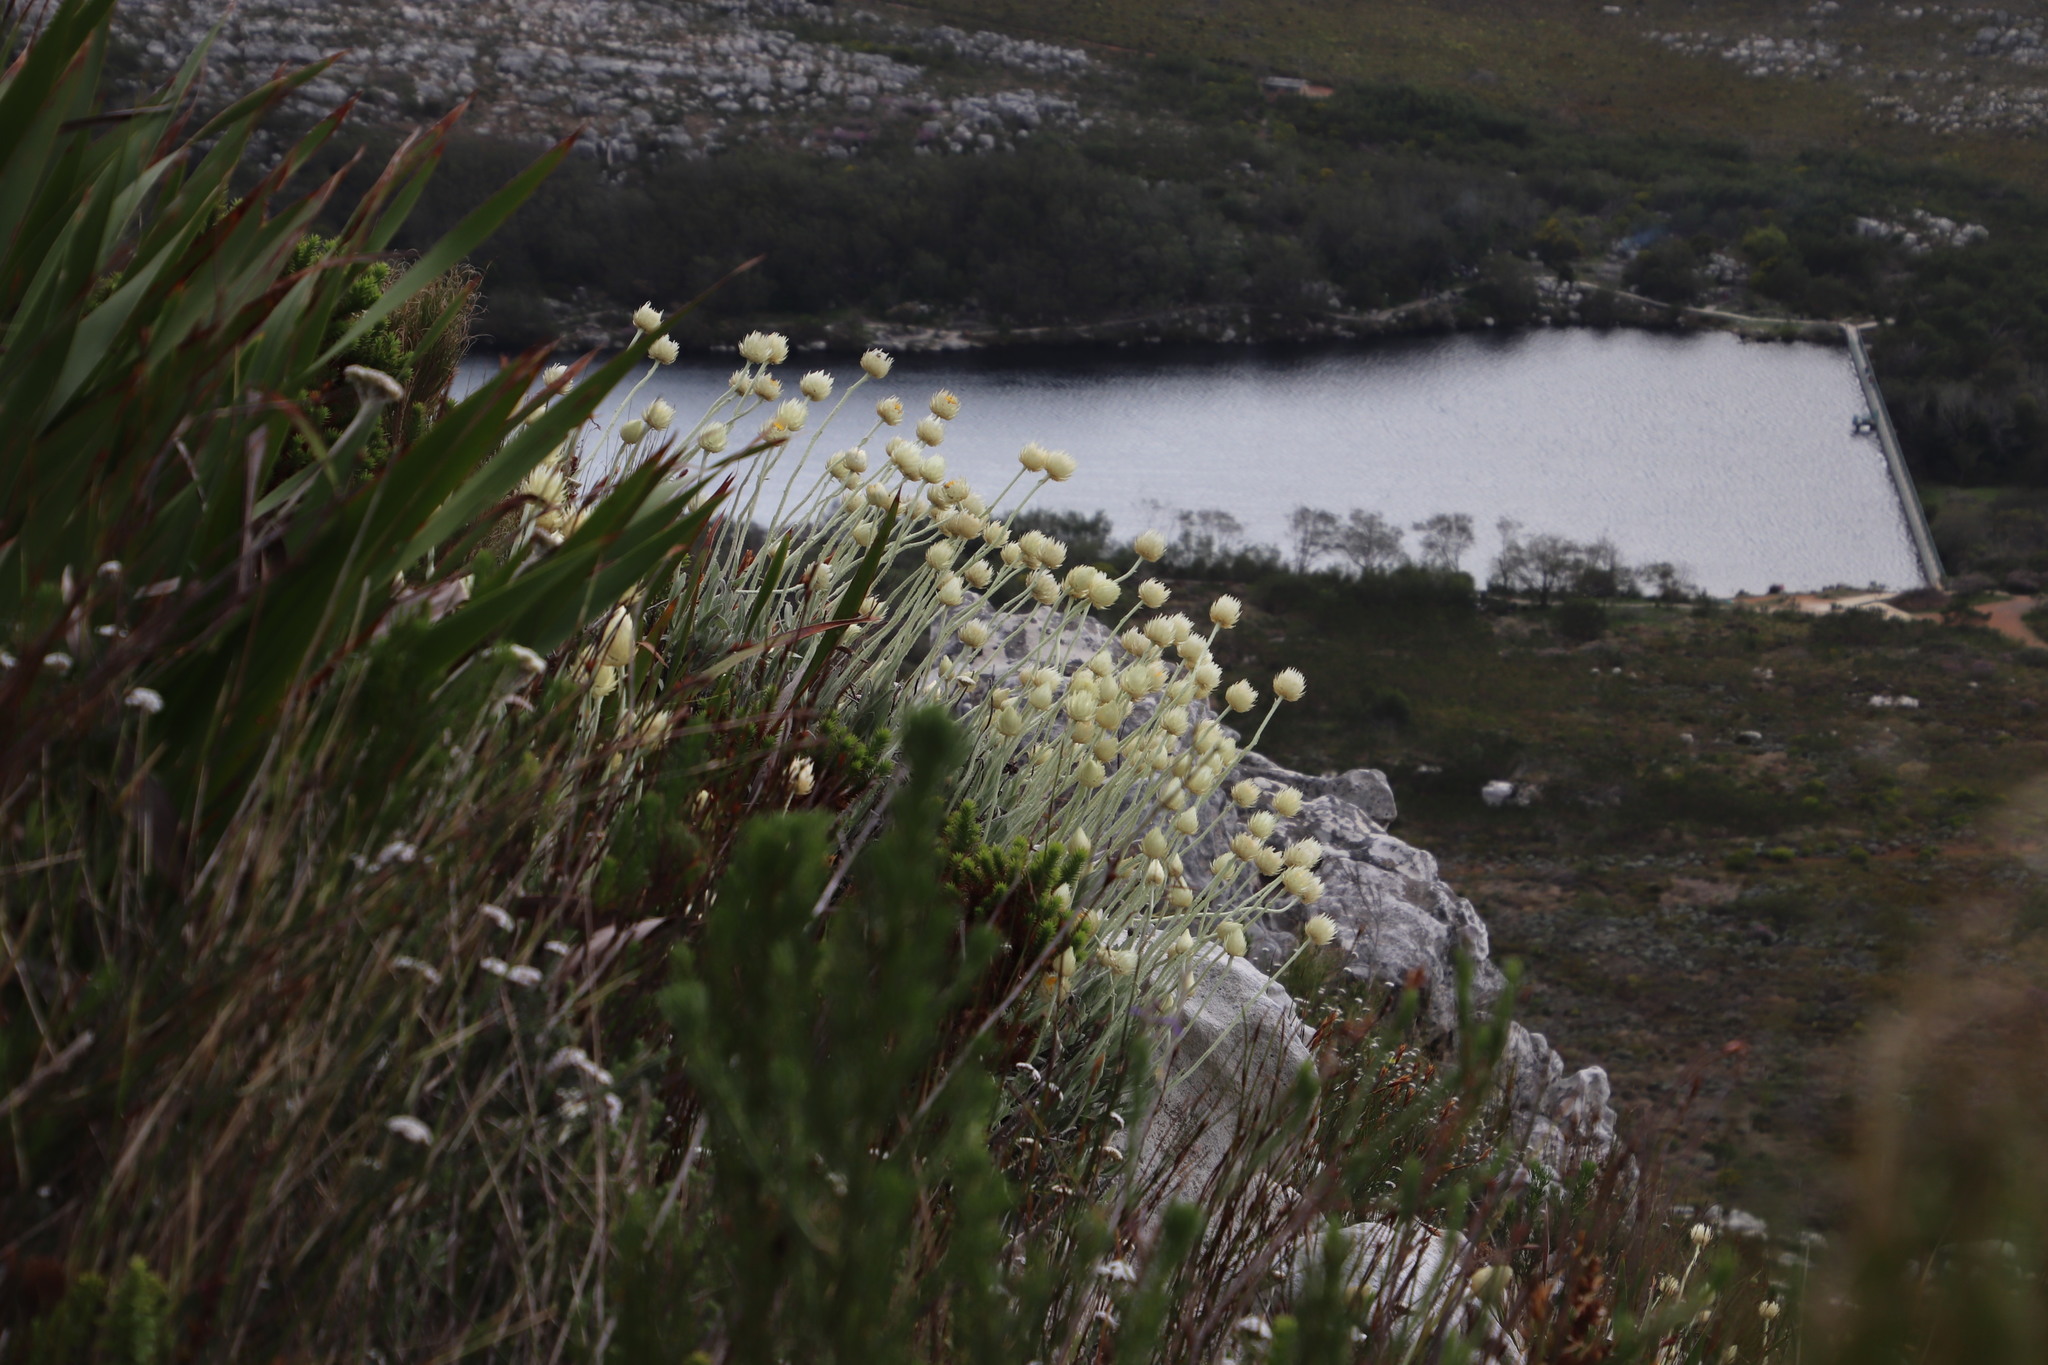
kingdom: Plantae
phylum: Tracheophyta
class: Magnoliopsida
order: Asterales
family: Asteraceae
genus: Syncarpha
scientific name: Syncarpha speciosissima
